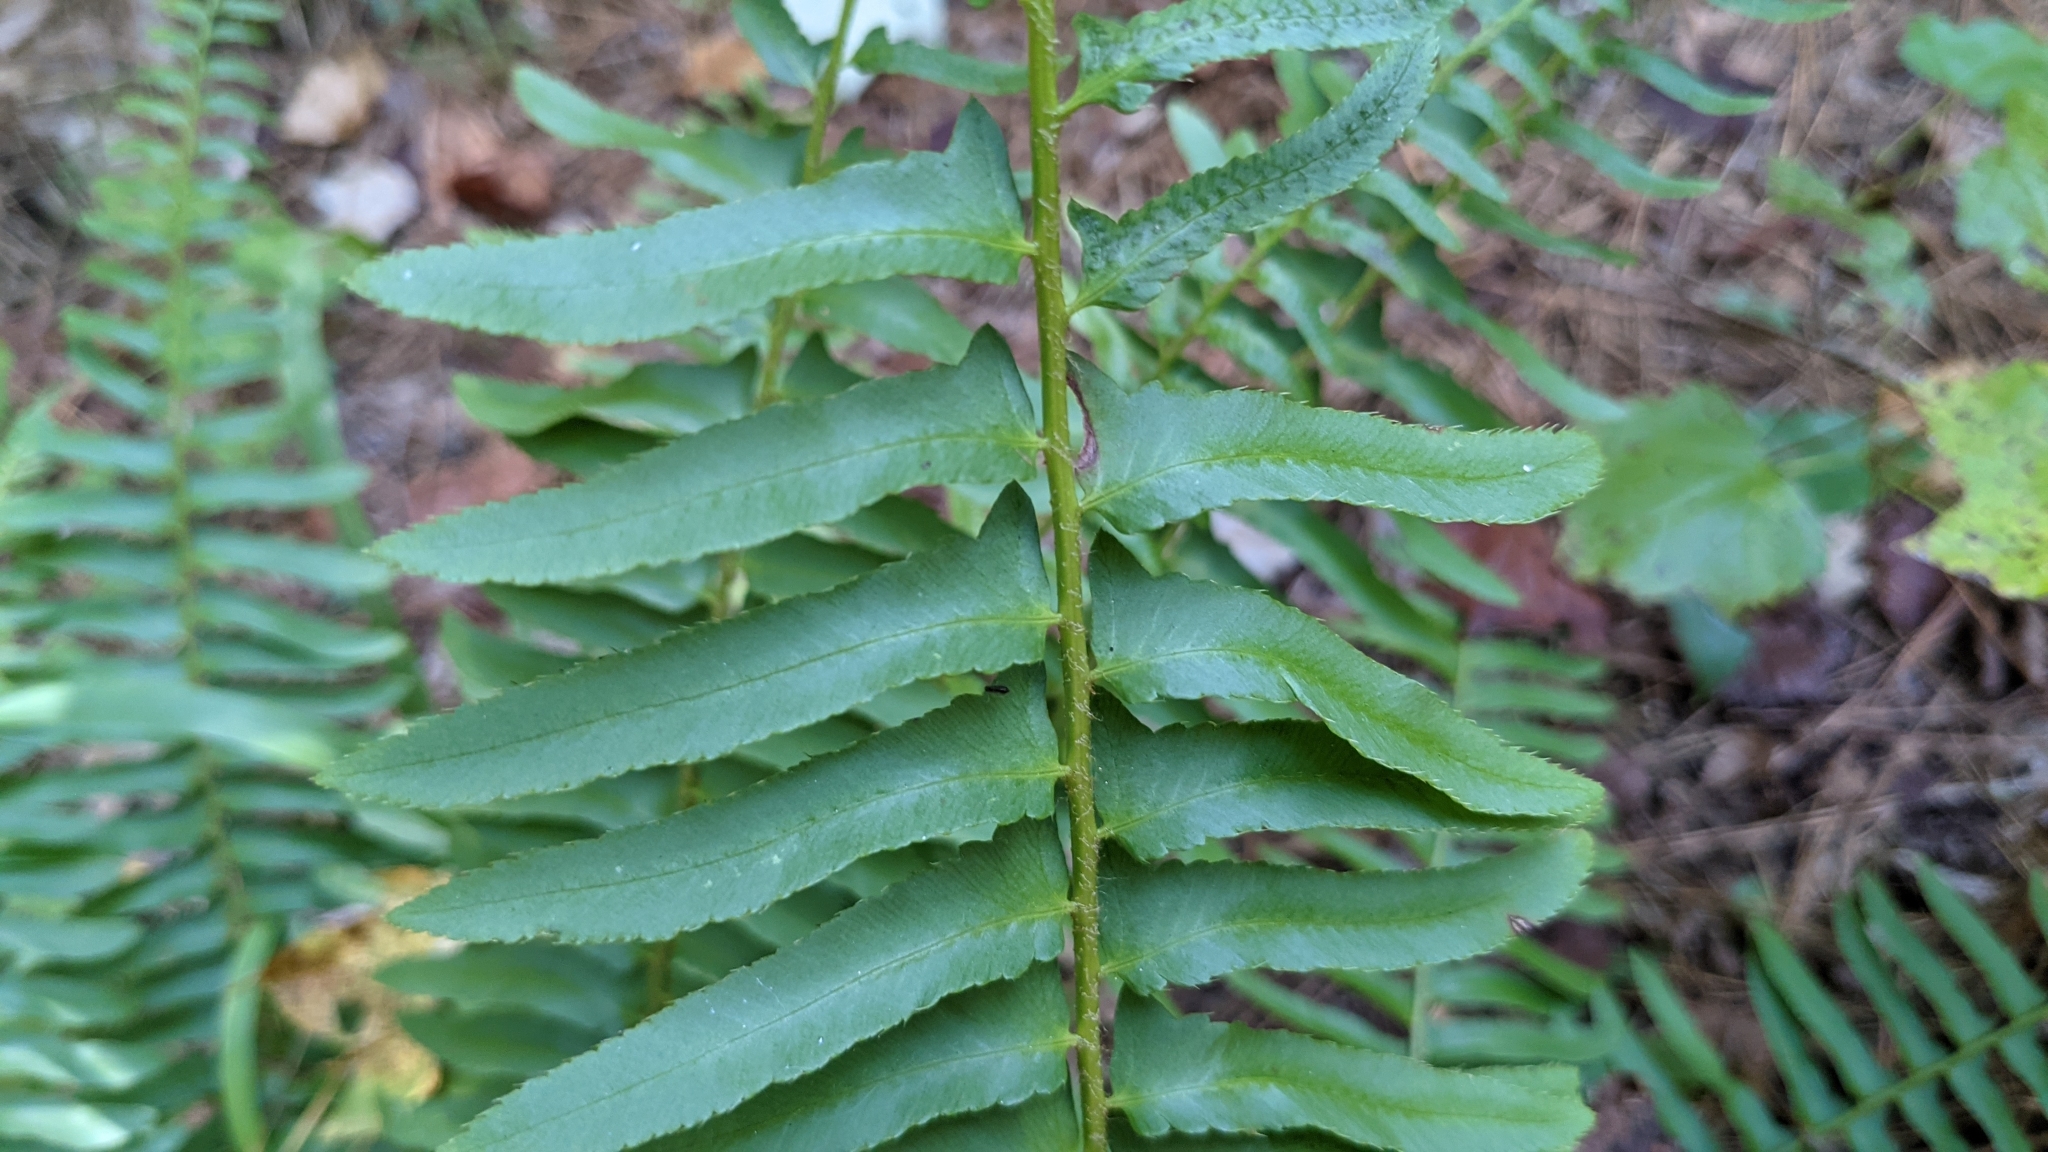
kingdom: Plantae
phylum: Tracheophyta
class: Polypodiopsida
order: Polypodiales
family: Dryopteridaceae
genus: Polystichum
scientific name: Polystichum acrostichoides
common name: Christmas fern
